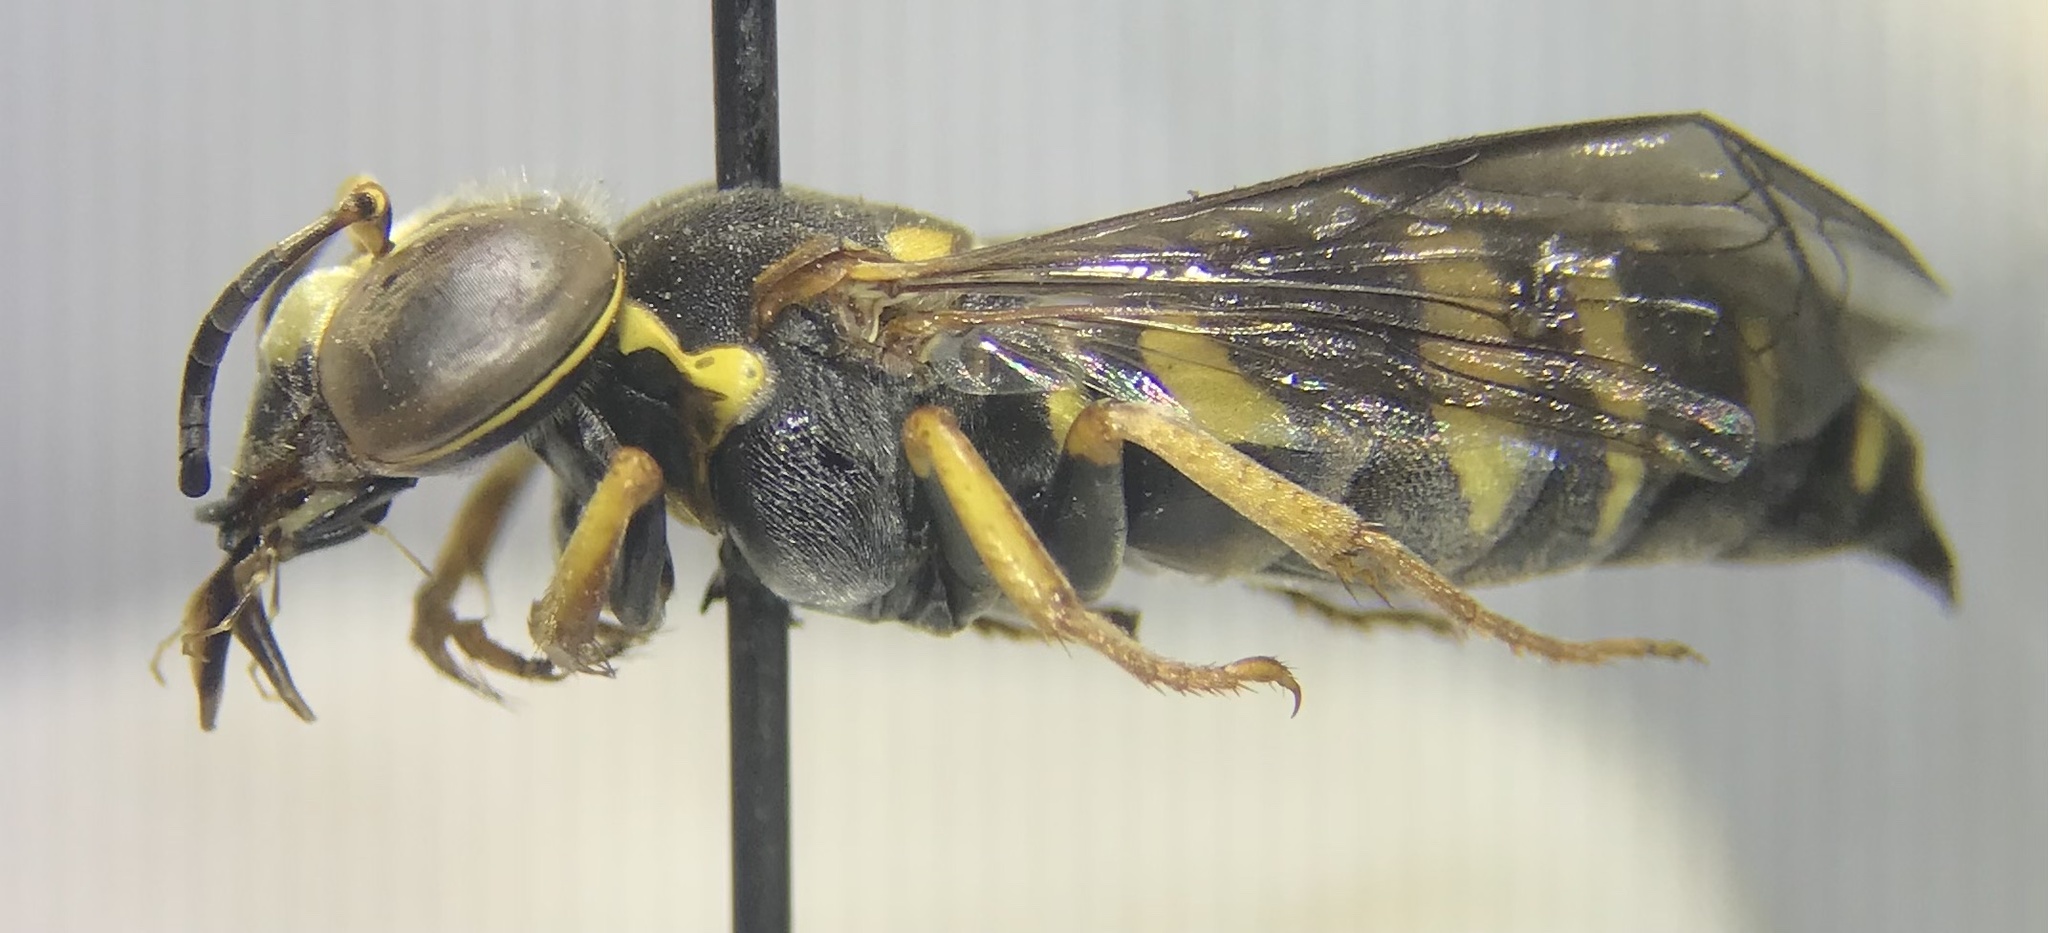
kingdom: Animalia
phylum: Arthropoda
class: Insecta
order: Hymenoptera
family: Crabronidae
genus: Bicyrtes
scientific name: Bicyrtes fodiens
